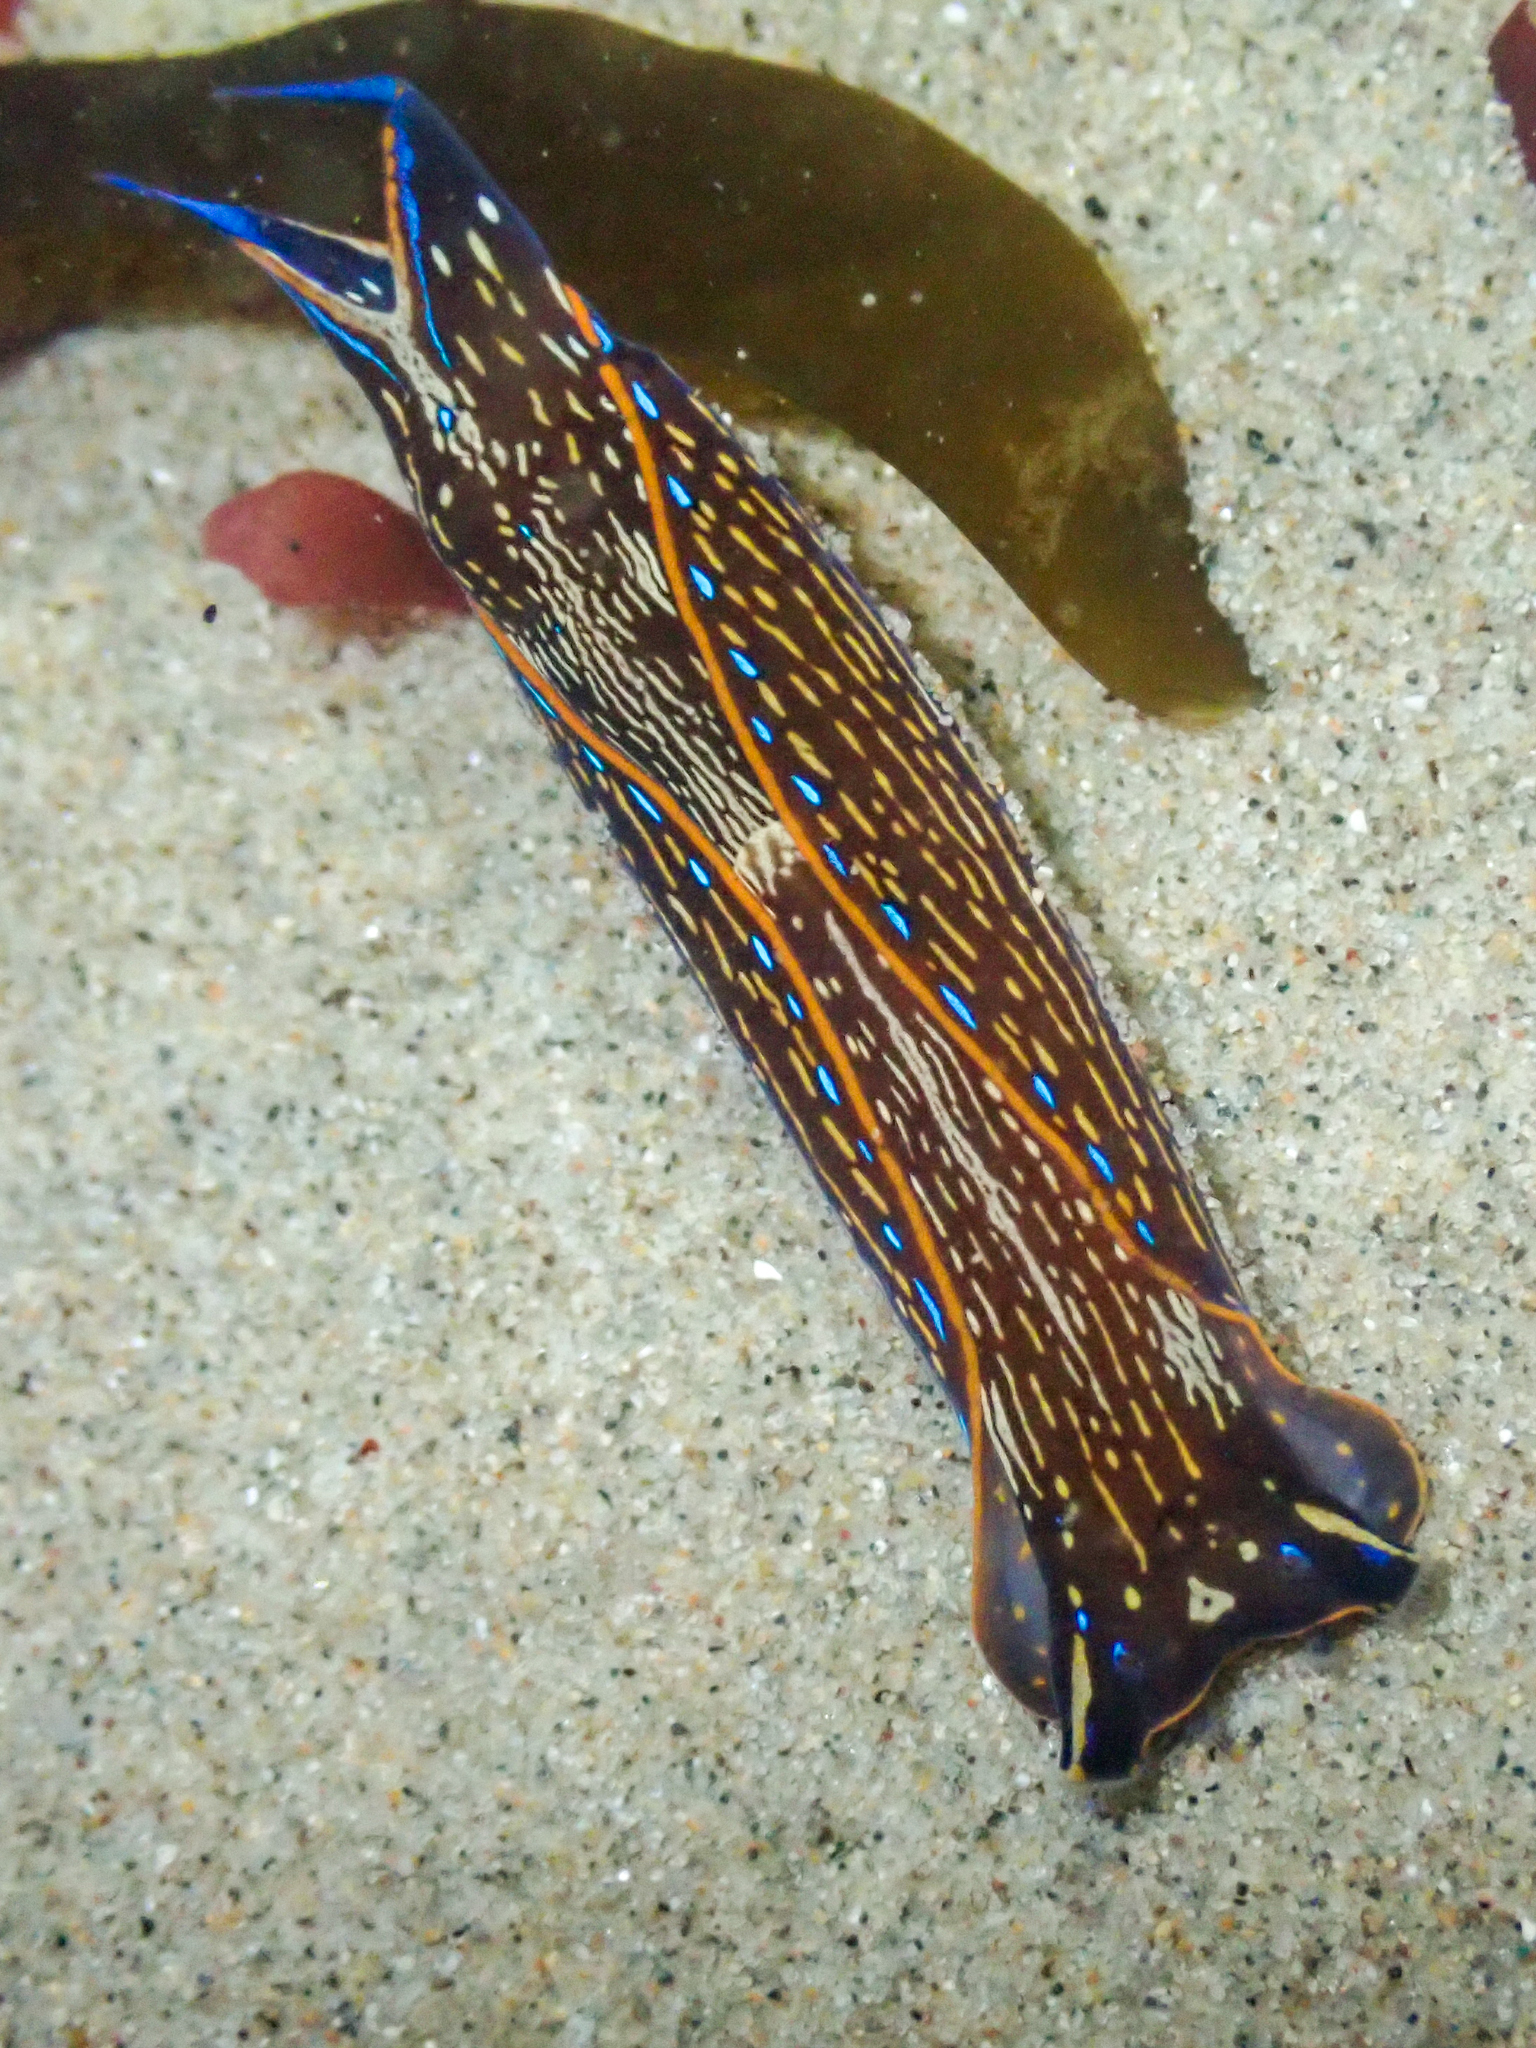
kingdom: Animalia
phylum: Mollusca
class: Gastropoda
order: Cephalaspidea
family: Aglajidae
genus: Navanax
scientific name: Navanax inermis
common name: California aglaja
